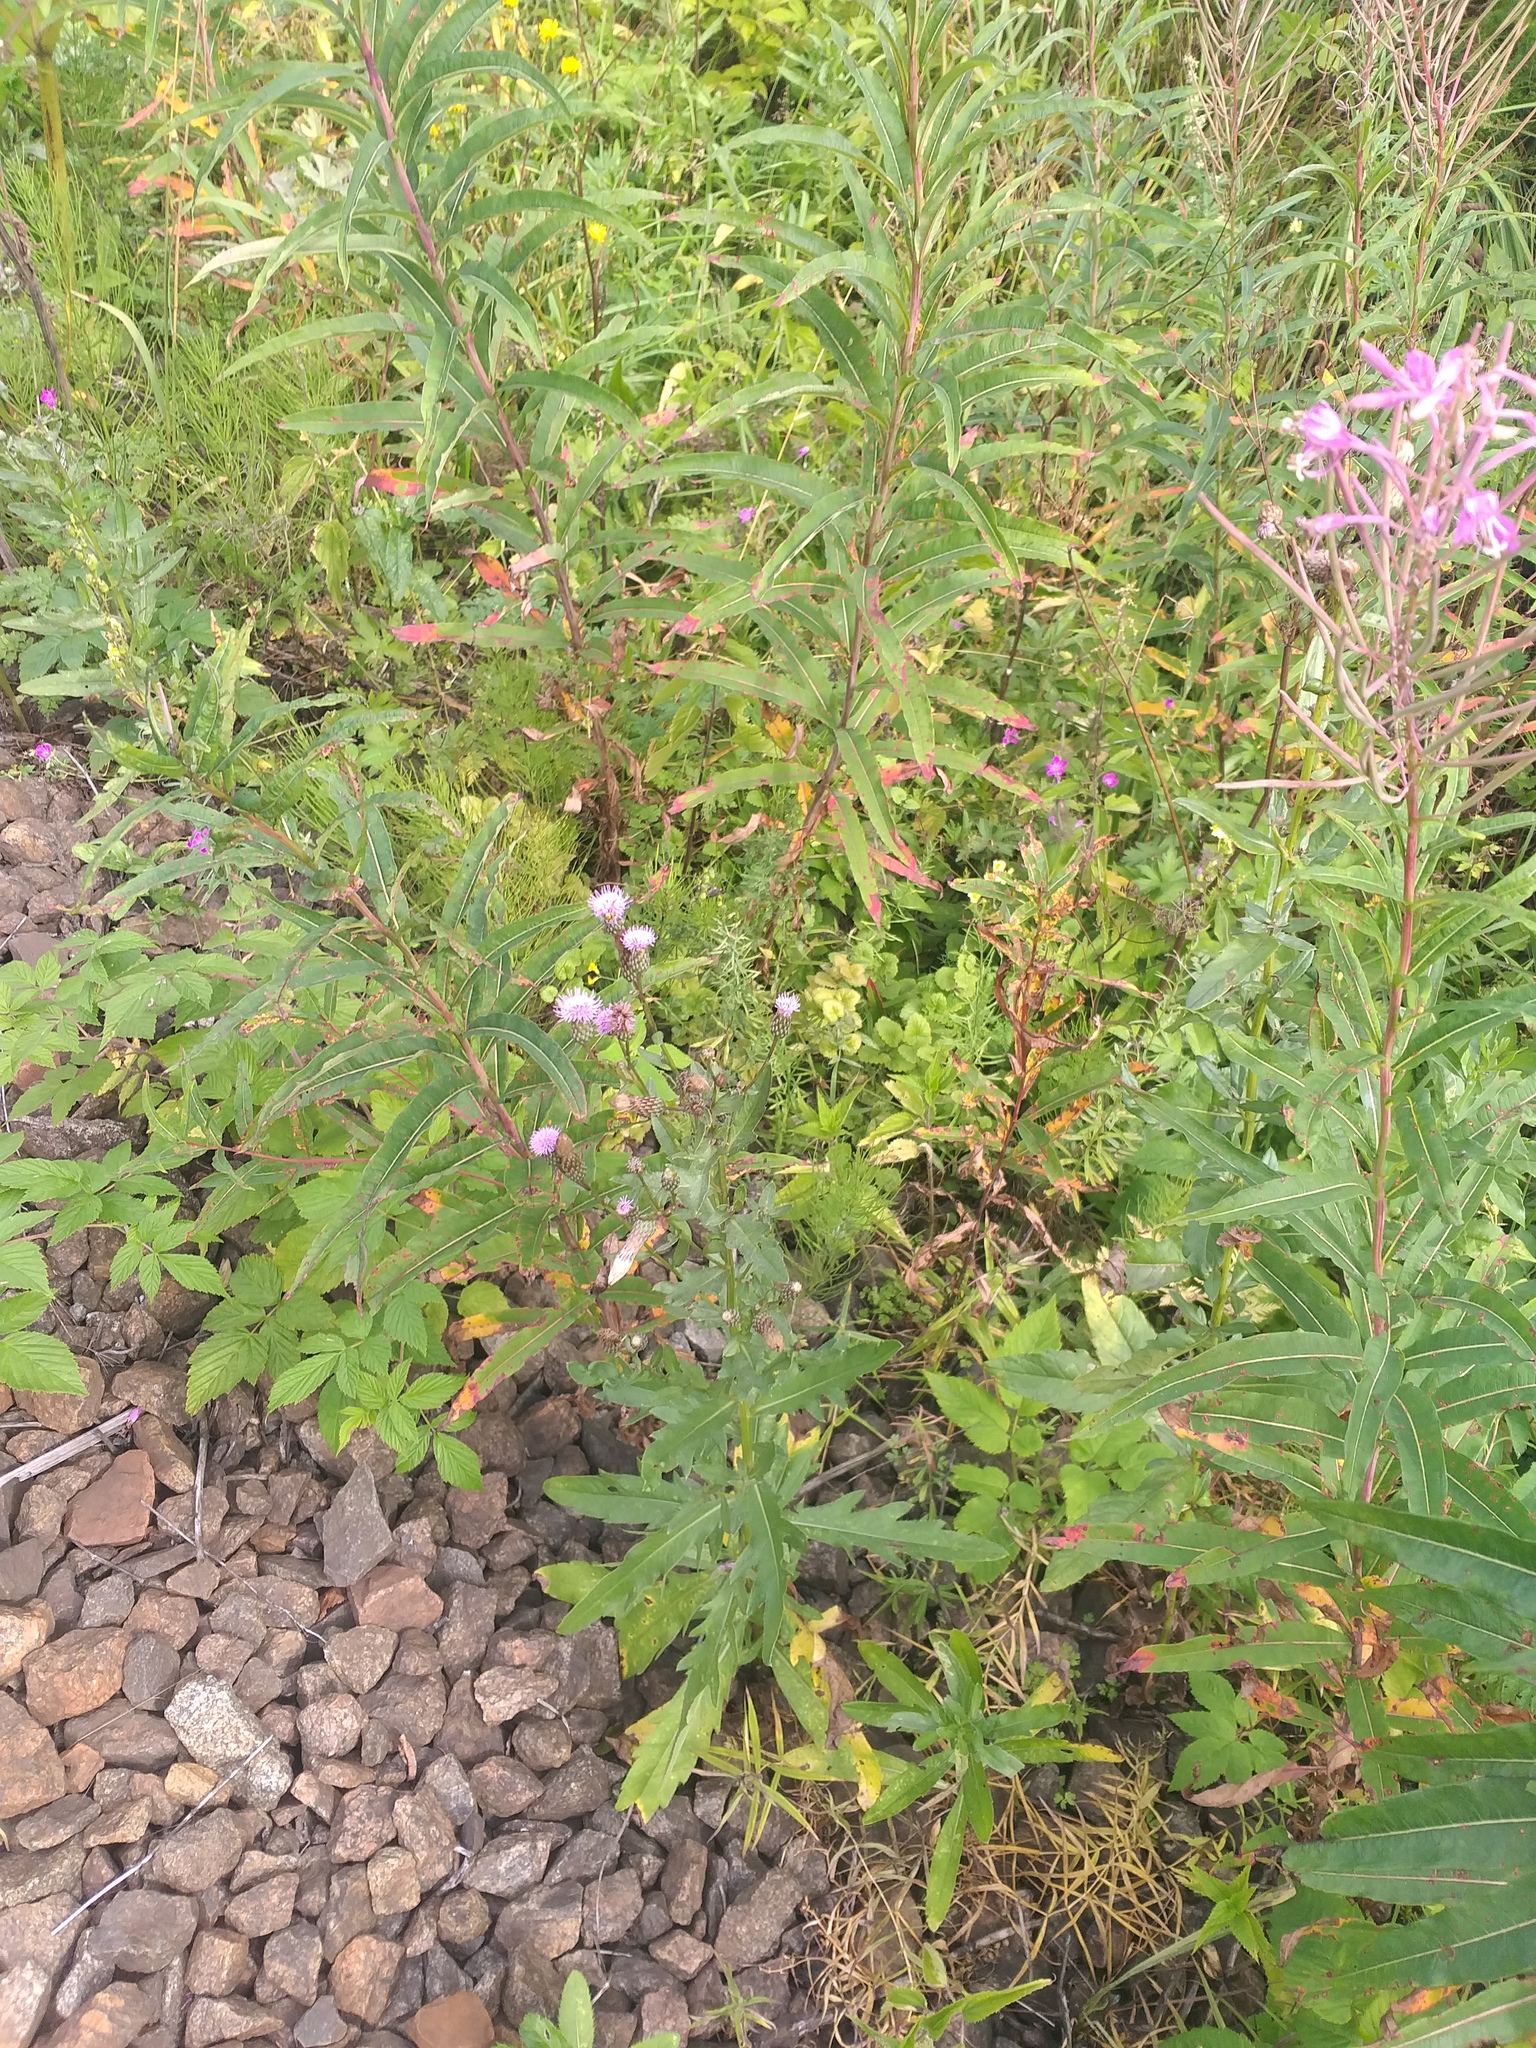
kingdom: Plantae
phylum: Tracheophyta
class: Magnoliopsida
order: Asterales
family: Asteraceae
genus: Cirsium
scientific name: Cirsium arvense
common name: Creeping thistle
